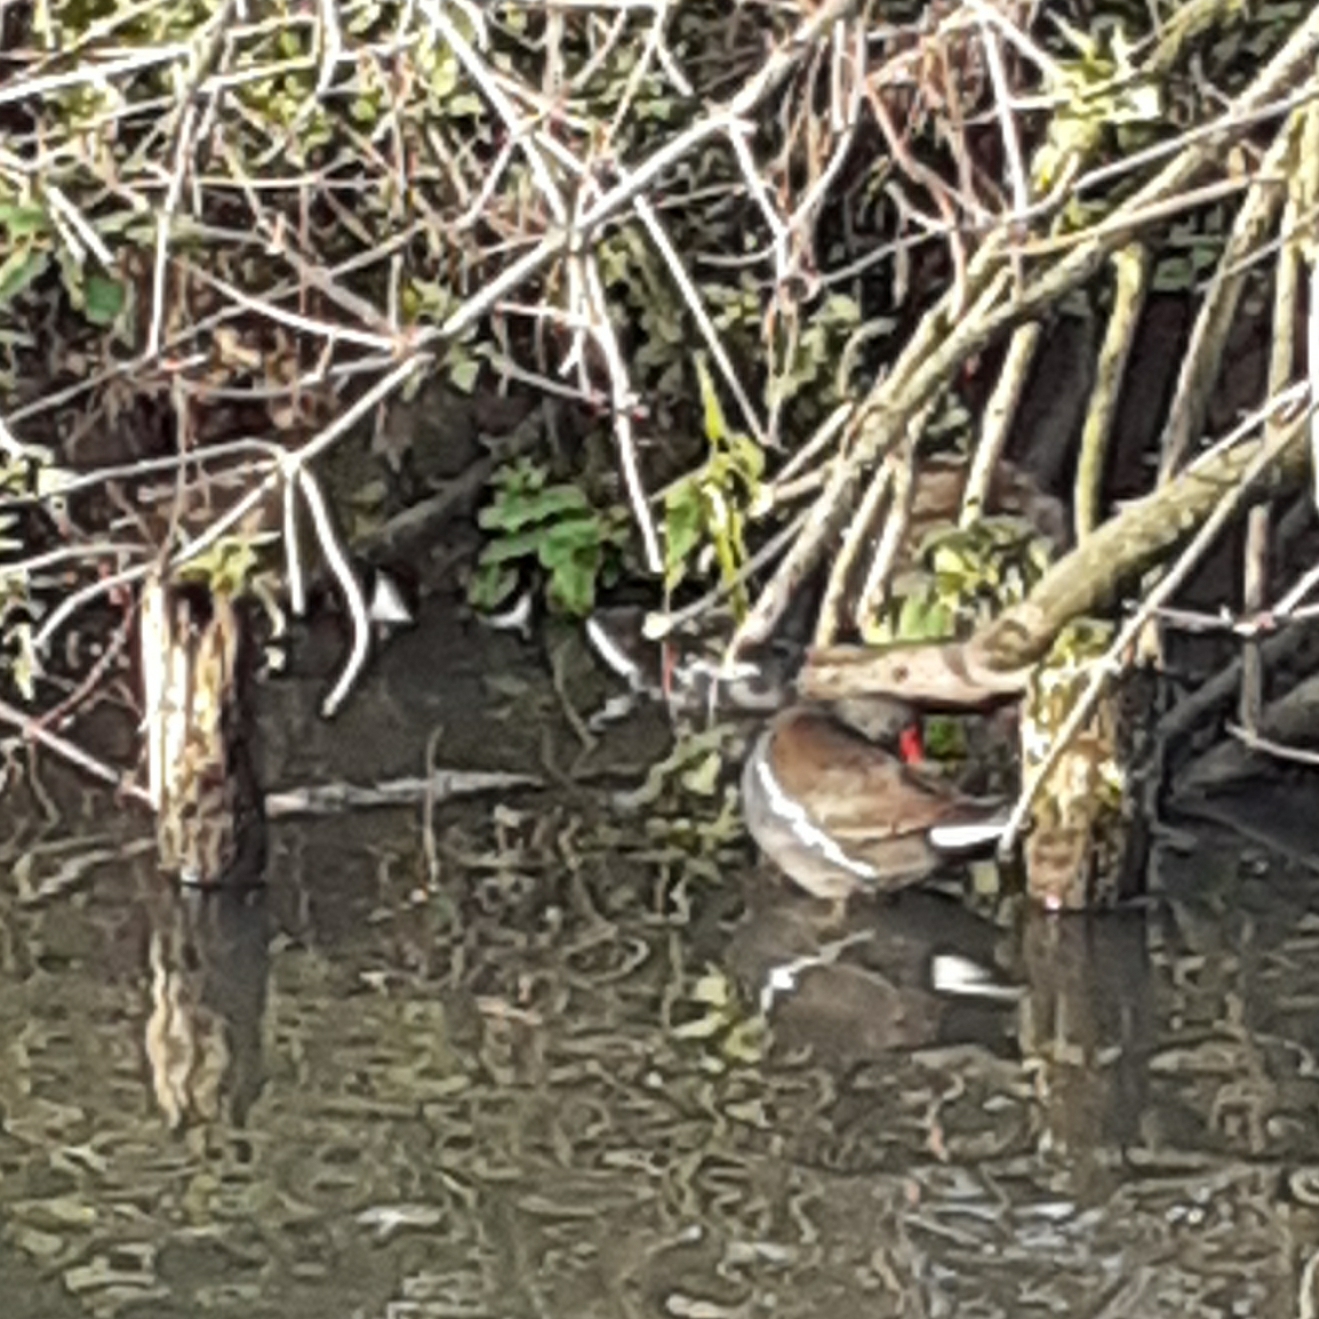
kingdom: Animalia
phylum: Chordata
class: Aves
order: Gruiformes
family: Rallidae
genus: Gallinula
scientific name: Gallinula chloropus
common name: Common moorhen
